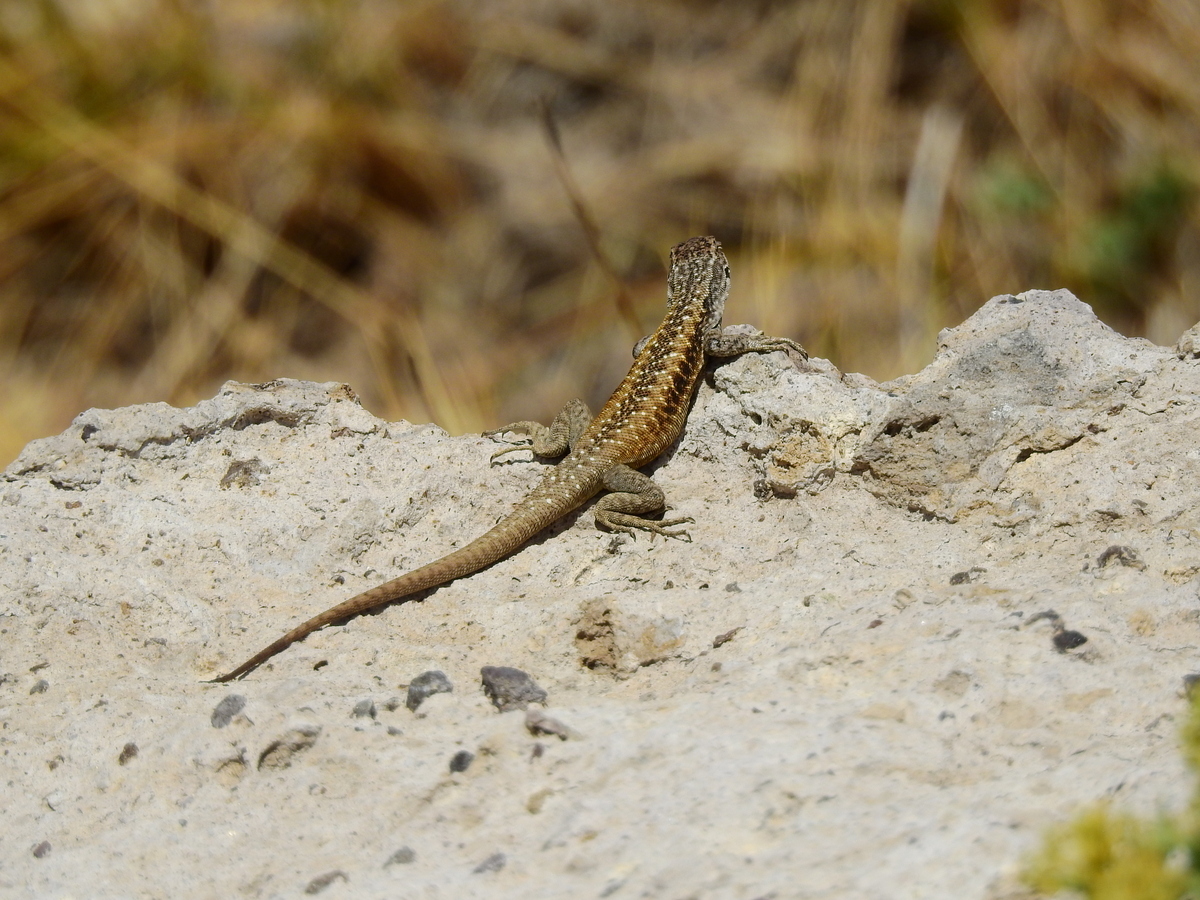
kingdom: Animalia
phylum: Chordata
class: Squamata
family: Liolaemidae
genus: Liolaemus
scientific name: Liolaemus smaug
